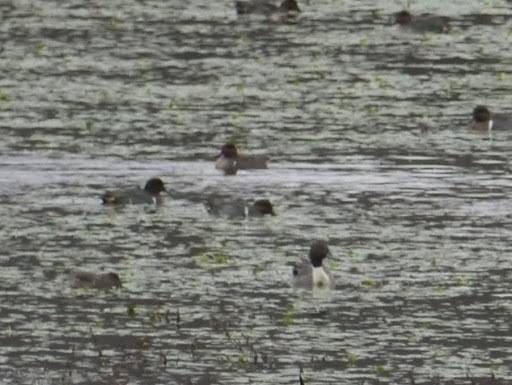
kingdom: Animalia
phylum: Chordata
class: Aves
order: Anseriformes
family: Anatidae
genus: Anas
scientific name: Anas crecca
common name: Eurasian teal
